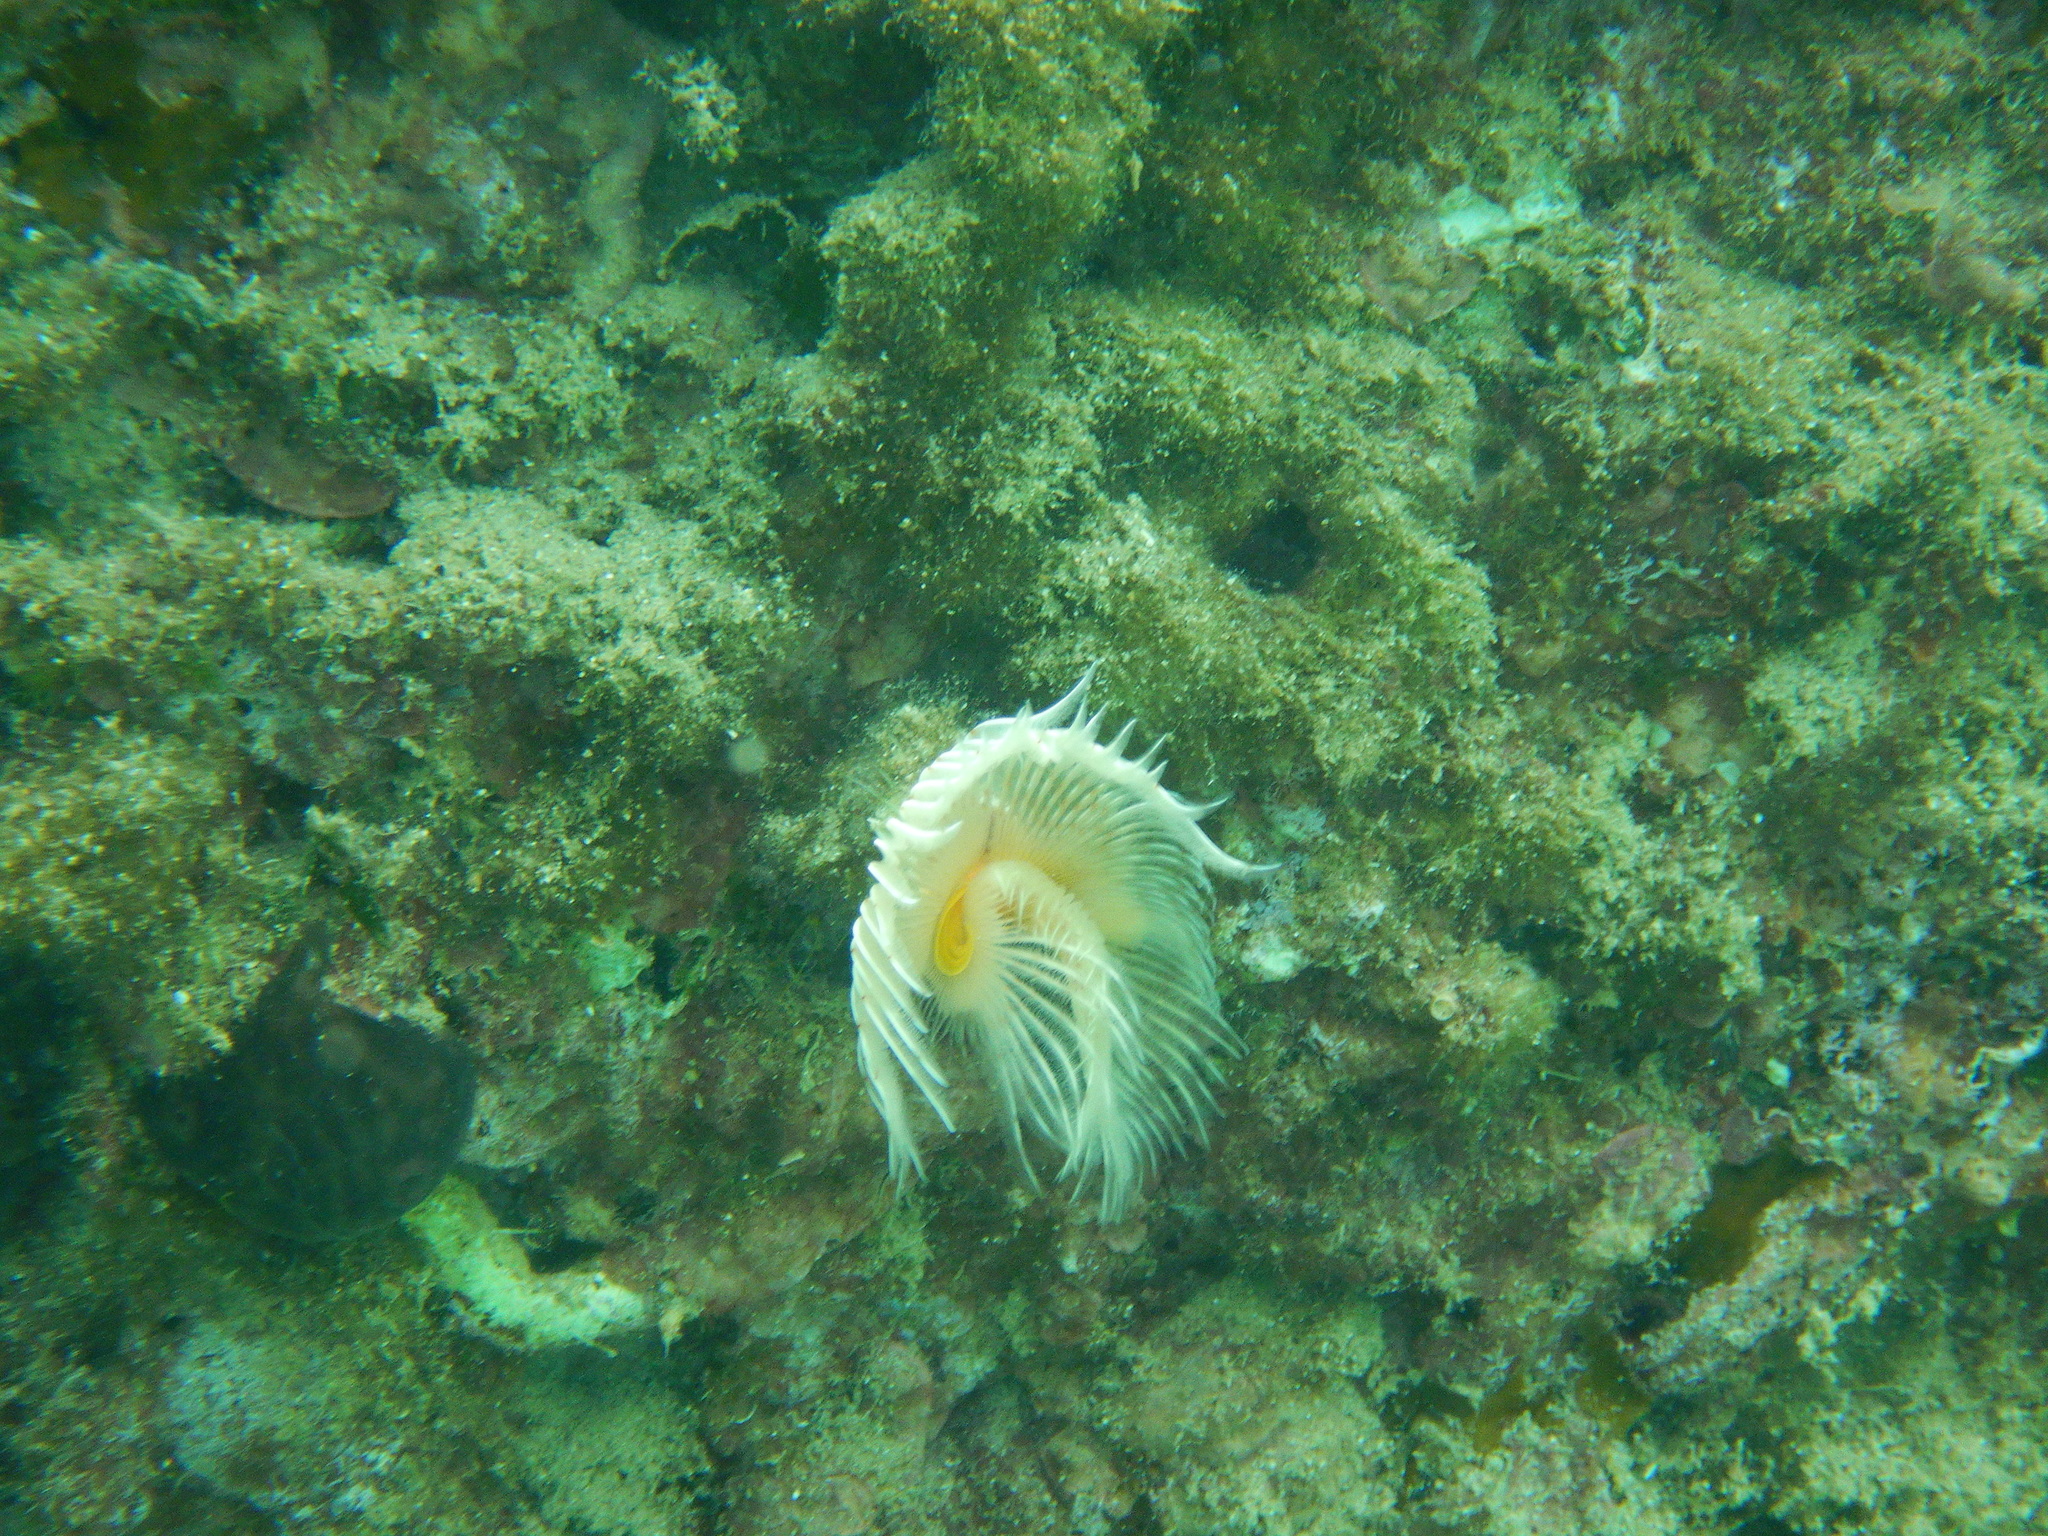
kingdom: Animalia
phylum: Annelida
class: Polychaeta
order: Sabellida
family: Serpulidae
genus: Protula
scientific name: Protula tubularia
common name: Red-spotted horseshoe
